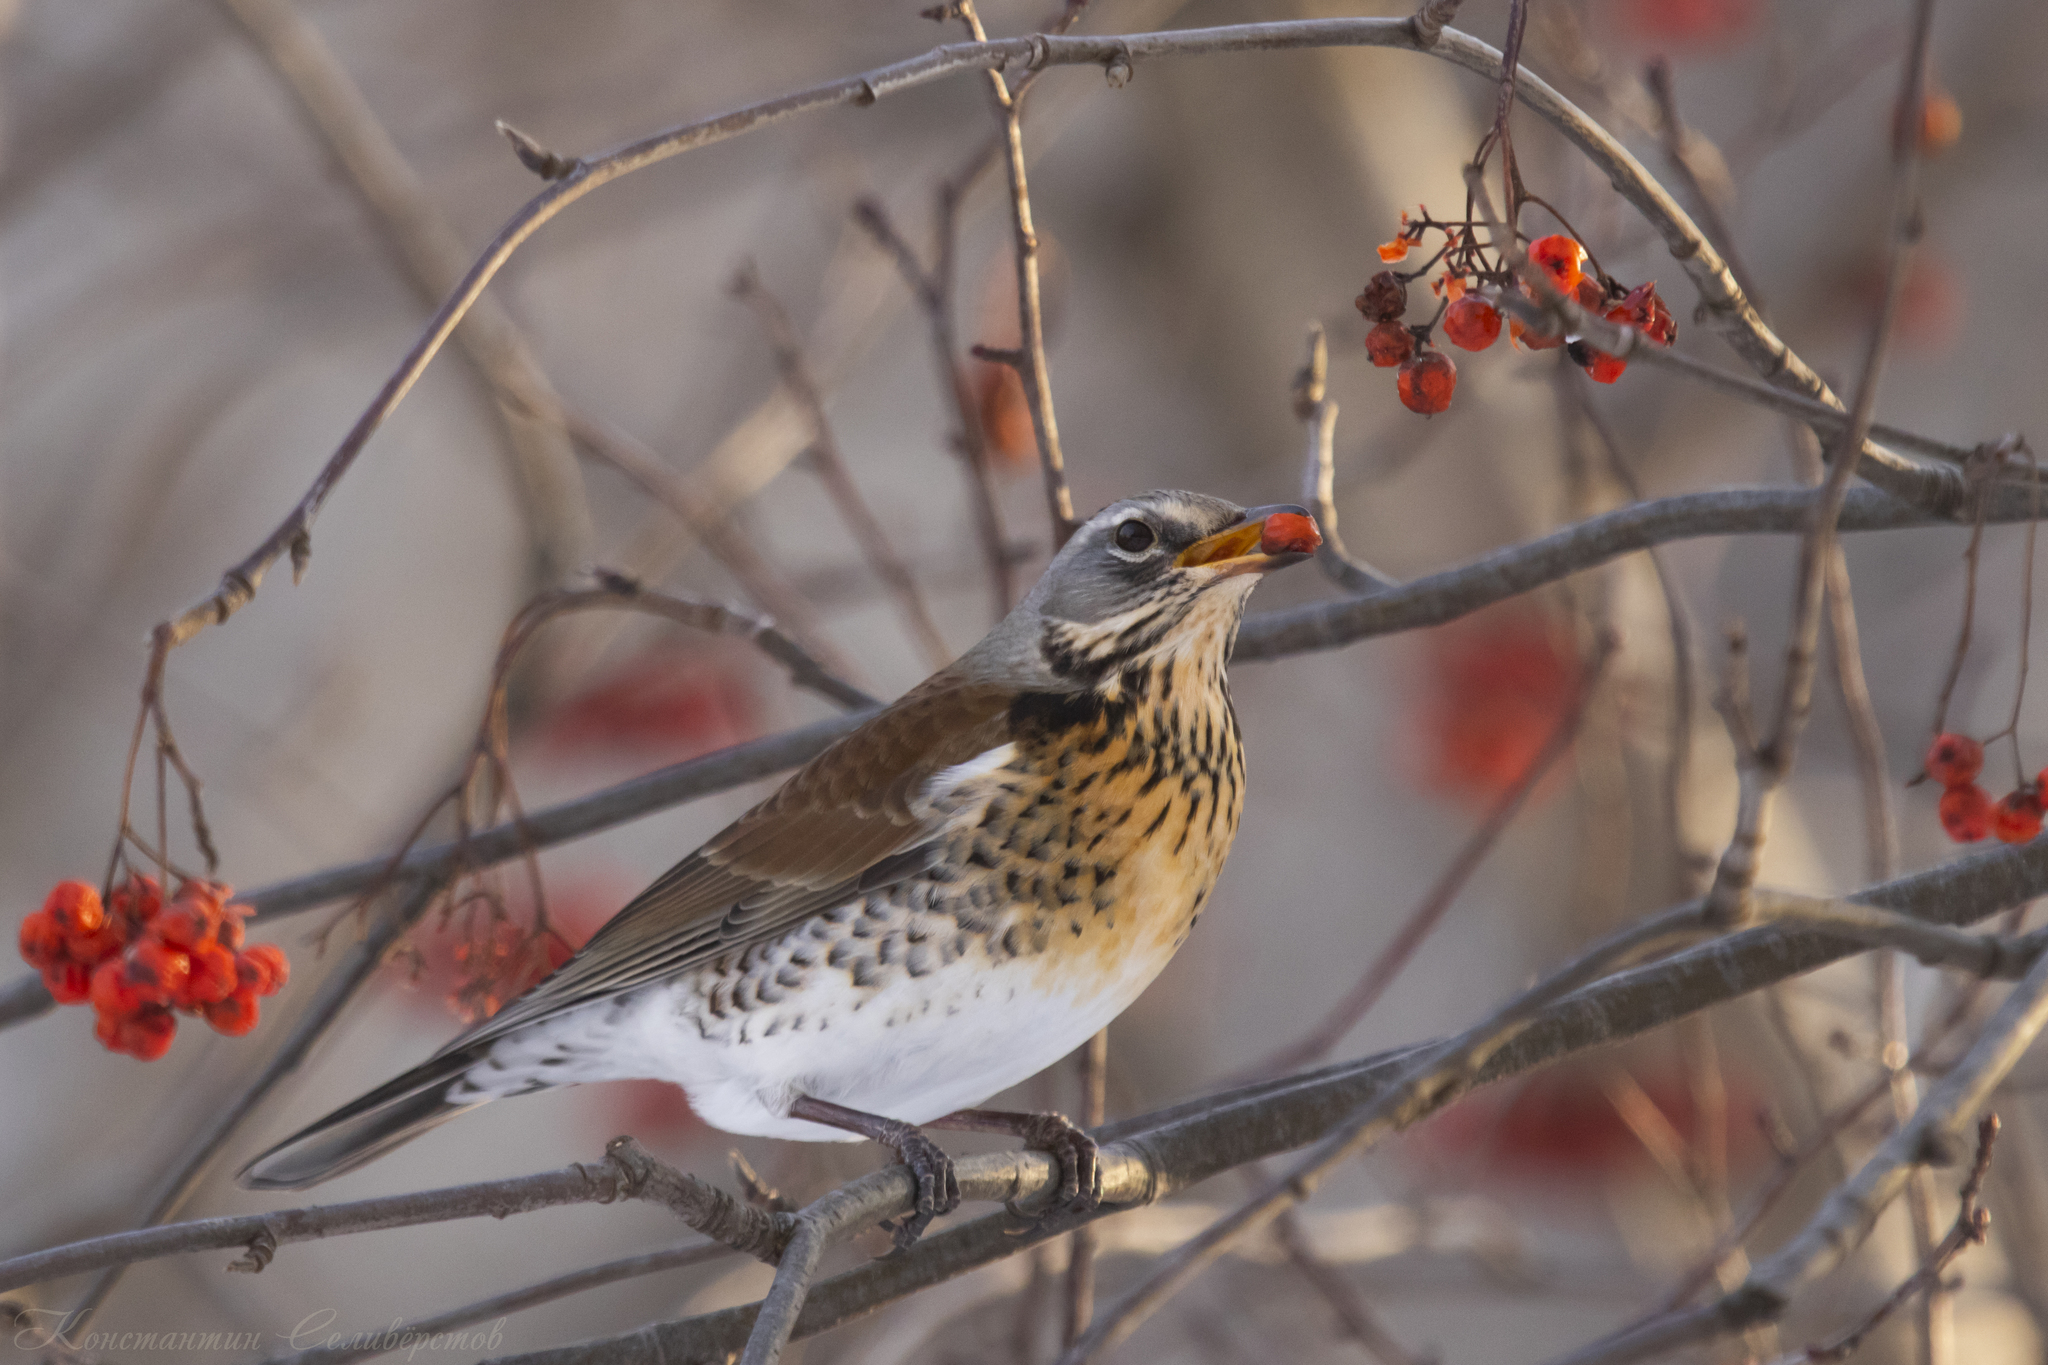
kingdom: Animalia
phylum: Chordata
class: Aves
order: Passeriformes
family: Turdidae
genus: Turdus
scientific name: Turdus pilaris
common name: Fieldfare
